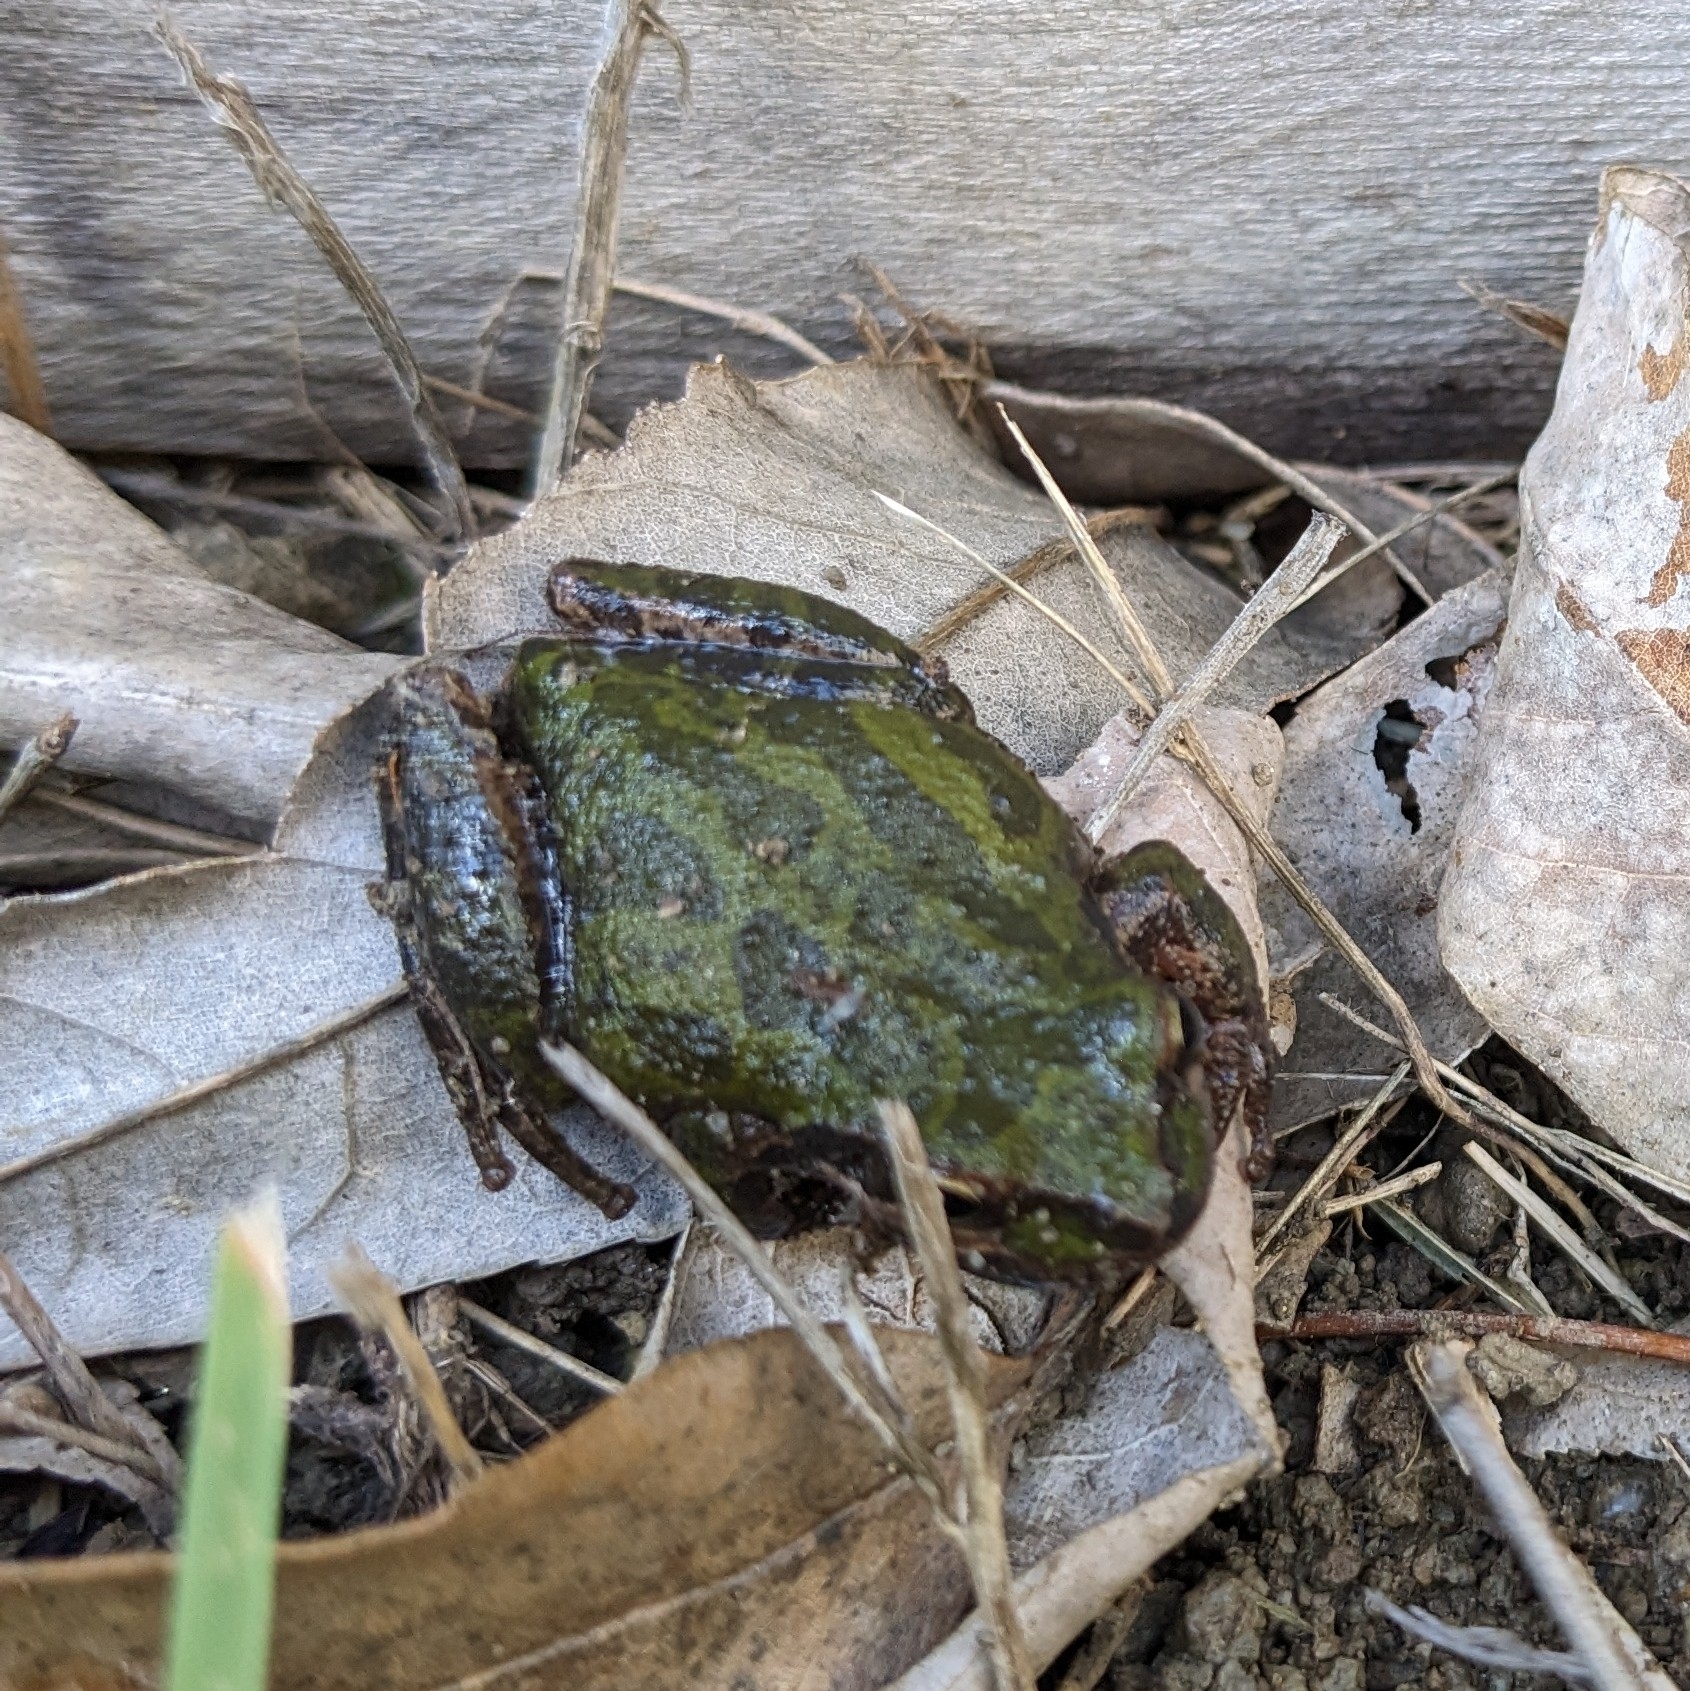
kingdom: Animalia
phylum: Chordata
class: Amphibia
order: Anura
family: Hylidae
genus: Pseudacris
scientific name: Pseudacris regilla
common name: Pacific chorus frog
